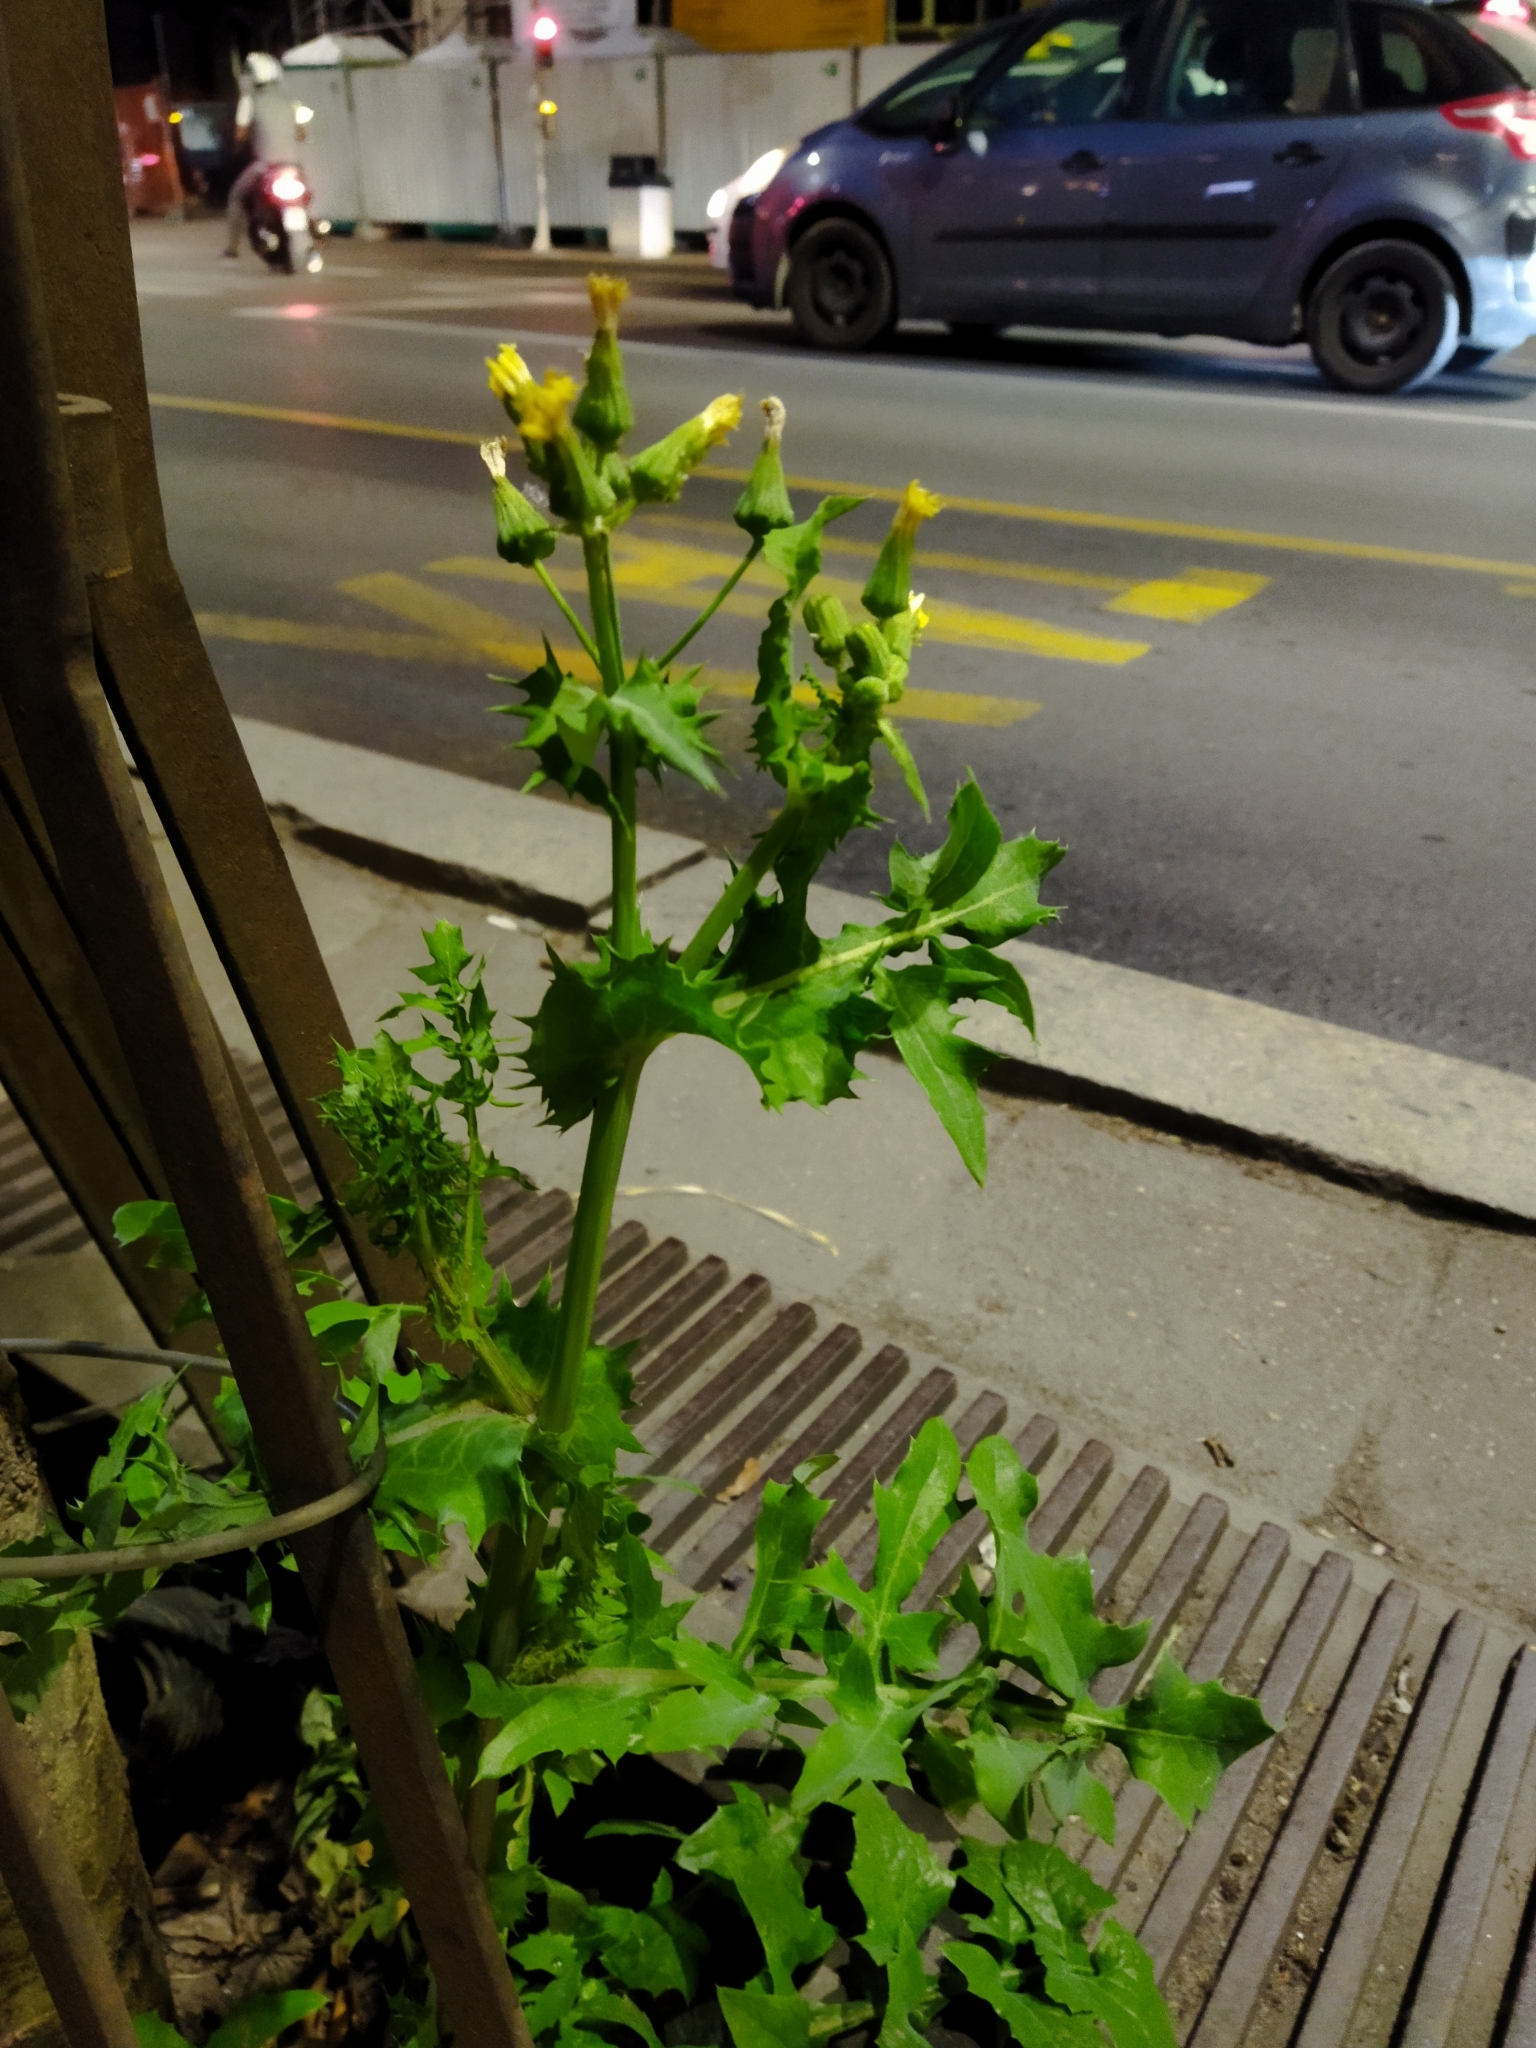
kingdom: Plantae
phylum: Tracheophyta
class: Magnoliopsida
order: Asterales
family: Asteraceae
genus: Sonchus
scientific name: Sonchus oleraceus
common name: Common sowthistle
